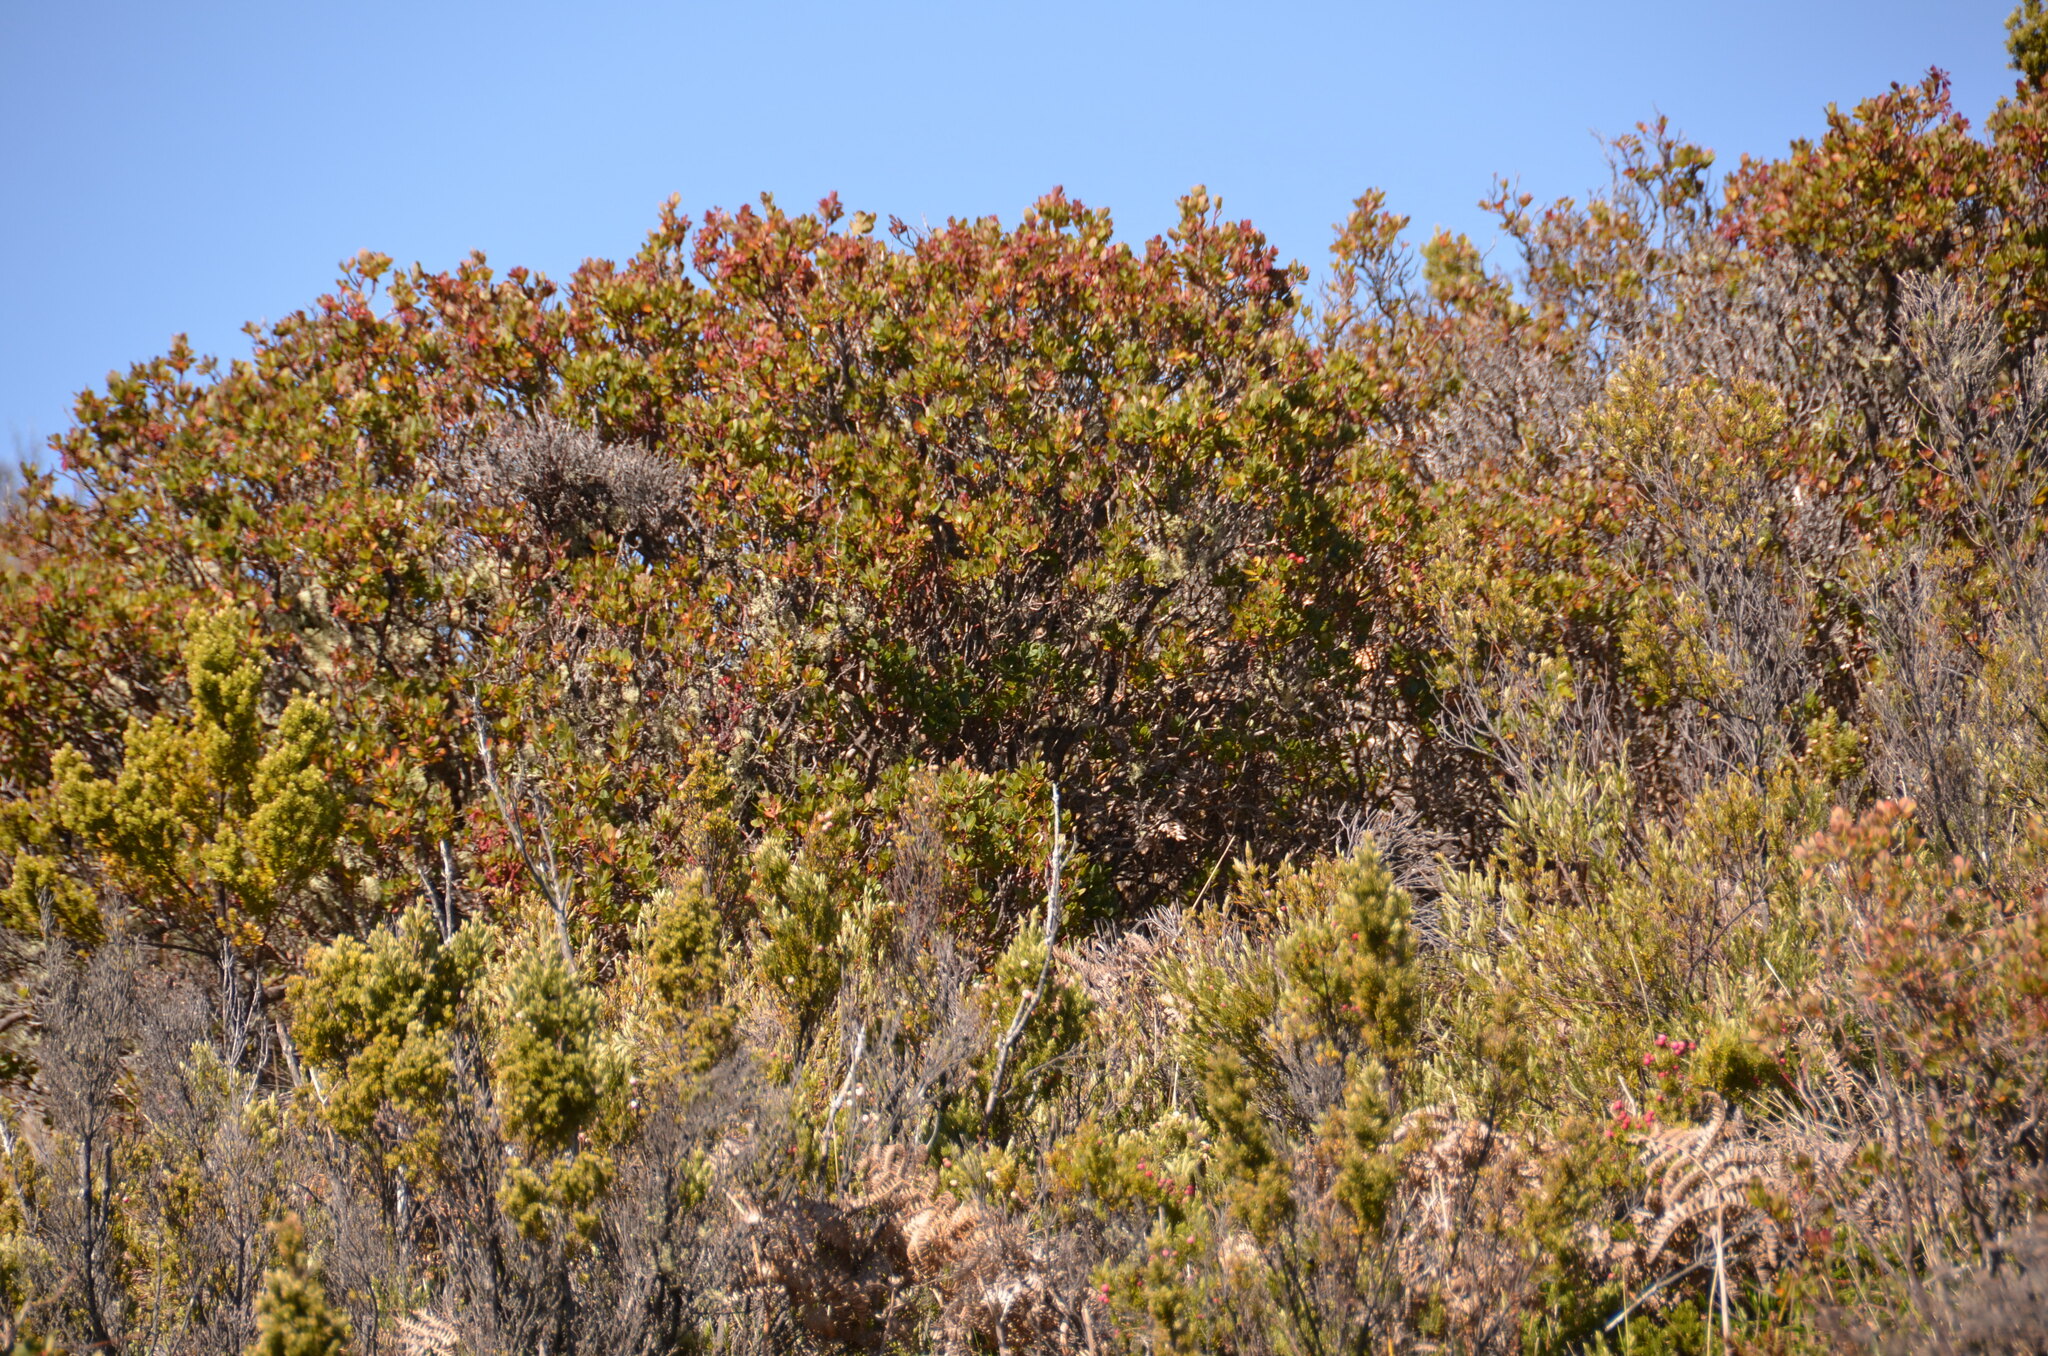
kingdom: Plantae
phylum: Tracheophyta
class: Magnoliopsida
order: Ericales
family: Ericaceae
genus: Vaccinium
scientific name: Vaccinium reticulatum
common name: Ohelo
